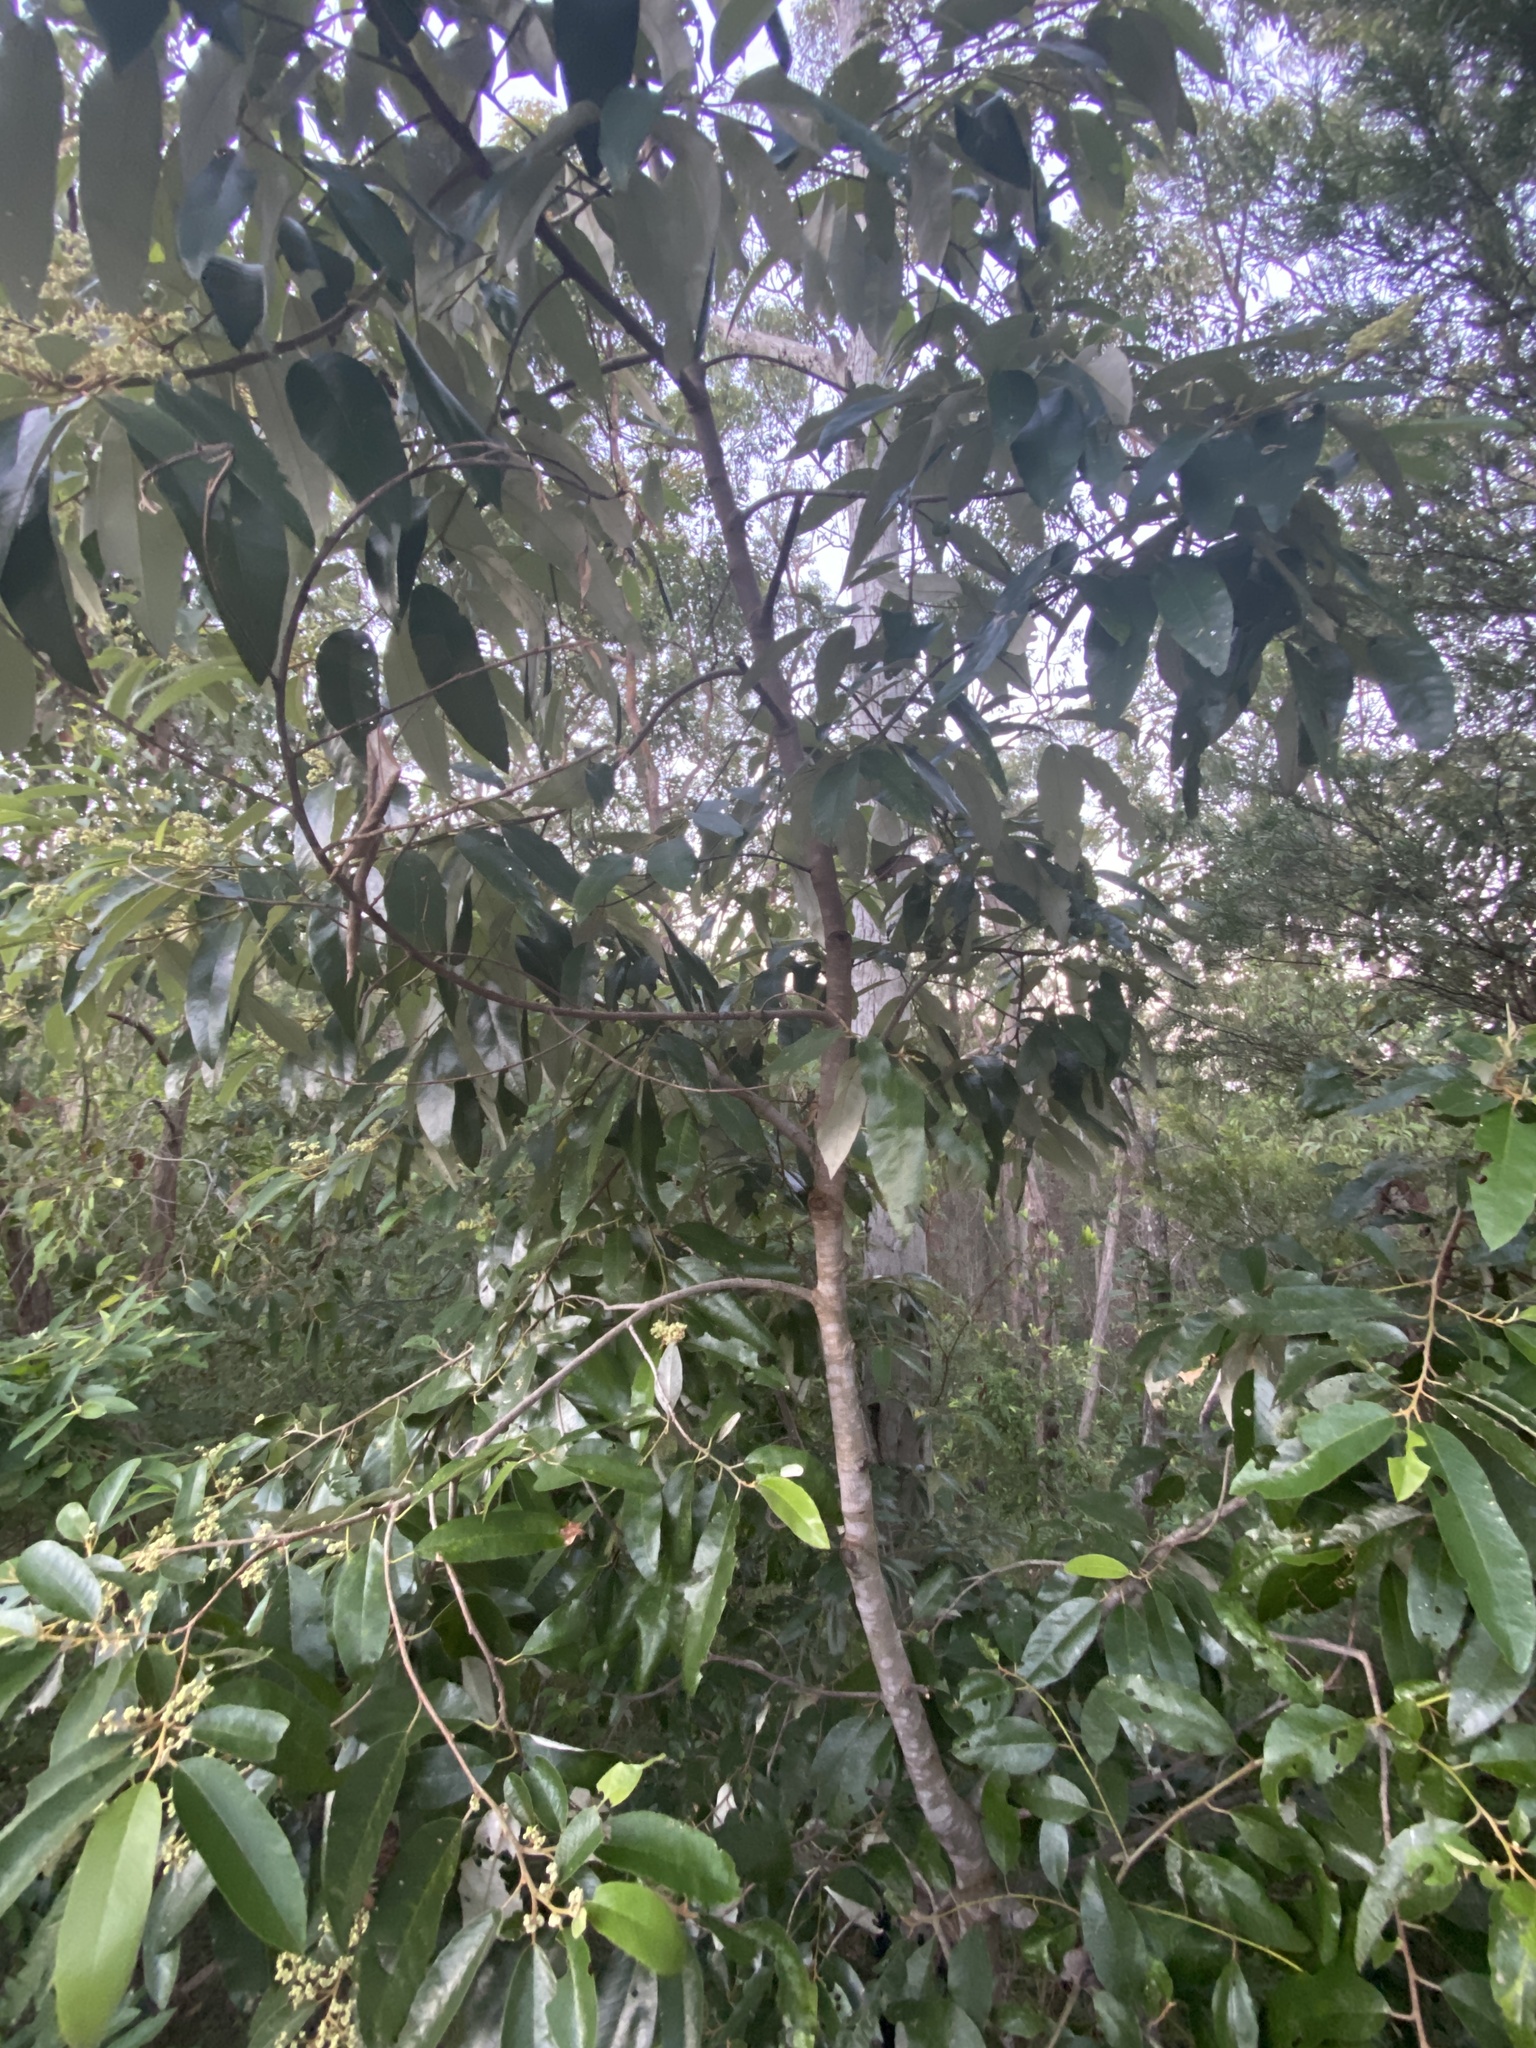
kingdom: Plantae
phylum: Tracheophyta
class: Magnoliopsida
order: Rosales
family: Rhamnaceae
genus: Alphitonia
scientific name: Alphitonia excelsa
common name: Red ash
